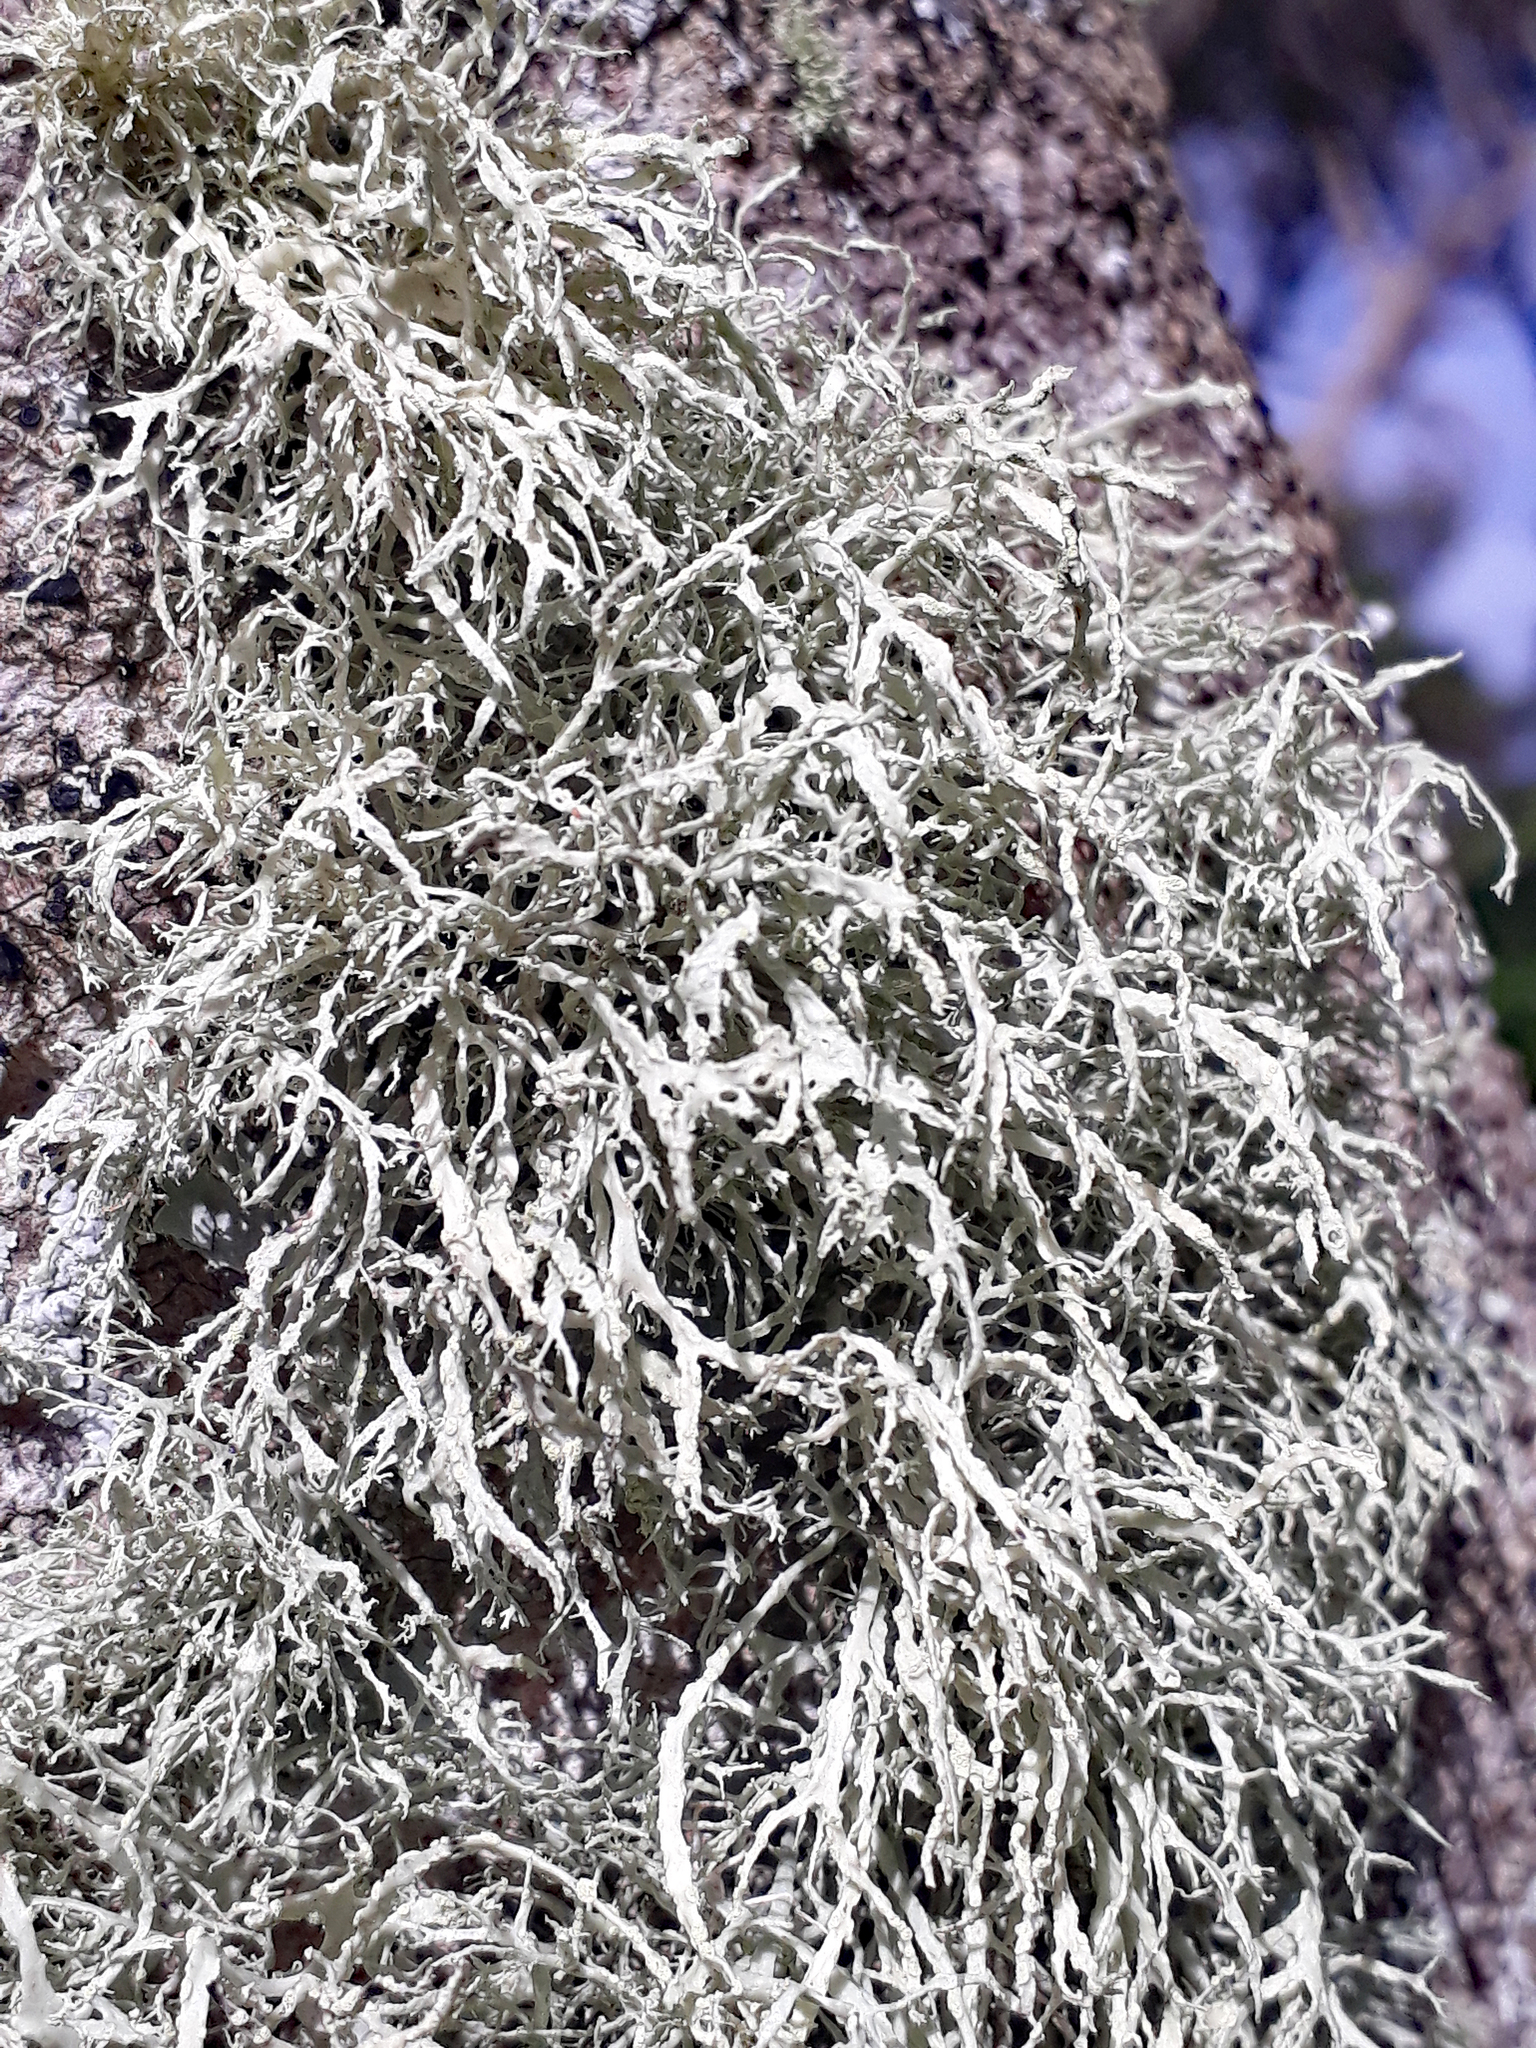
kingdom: Fungi
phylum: Ascomycota
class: Lecanoromycetes
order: Lecanorales
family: Ramalinaceae
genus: Ramalina
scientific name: Ramalina peruviana
